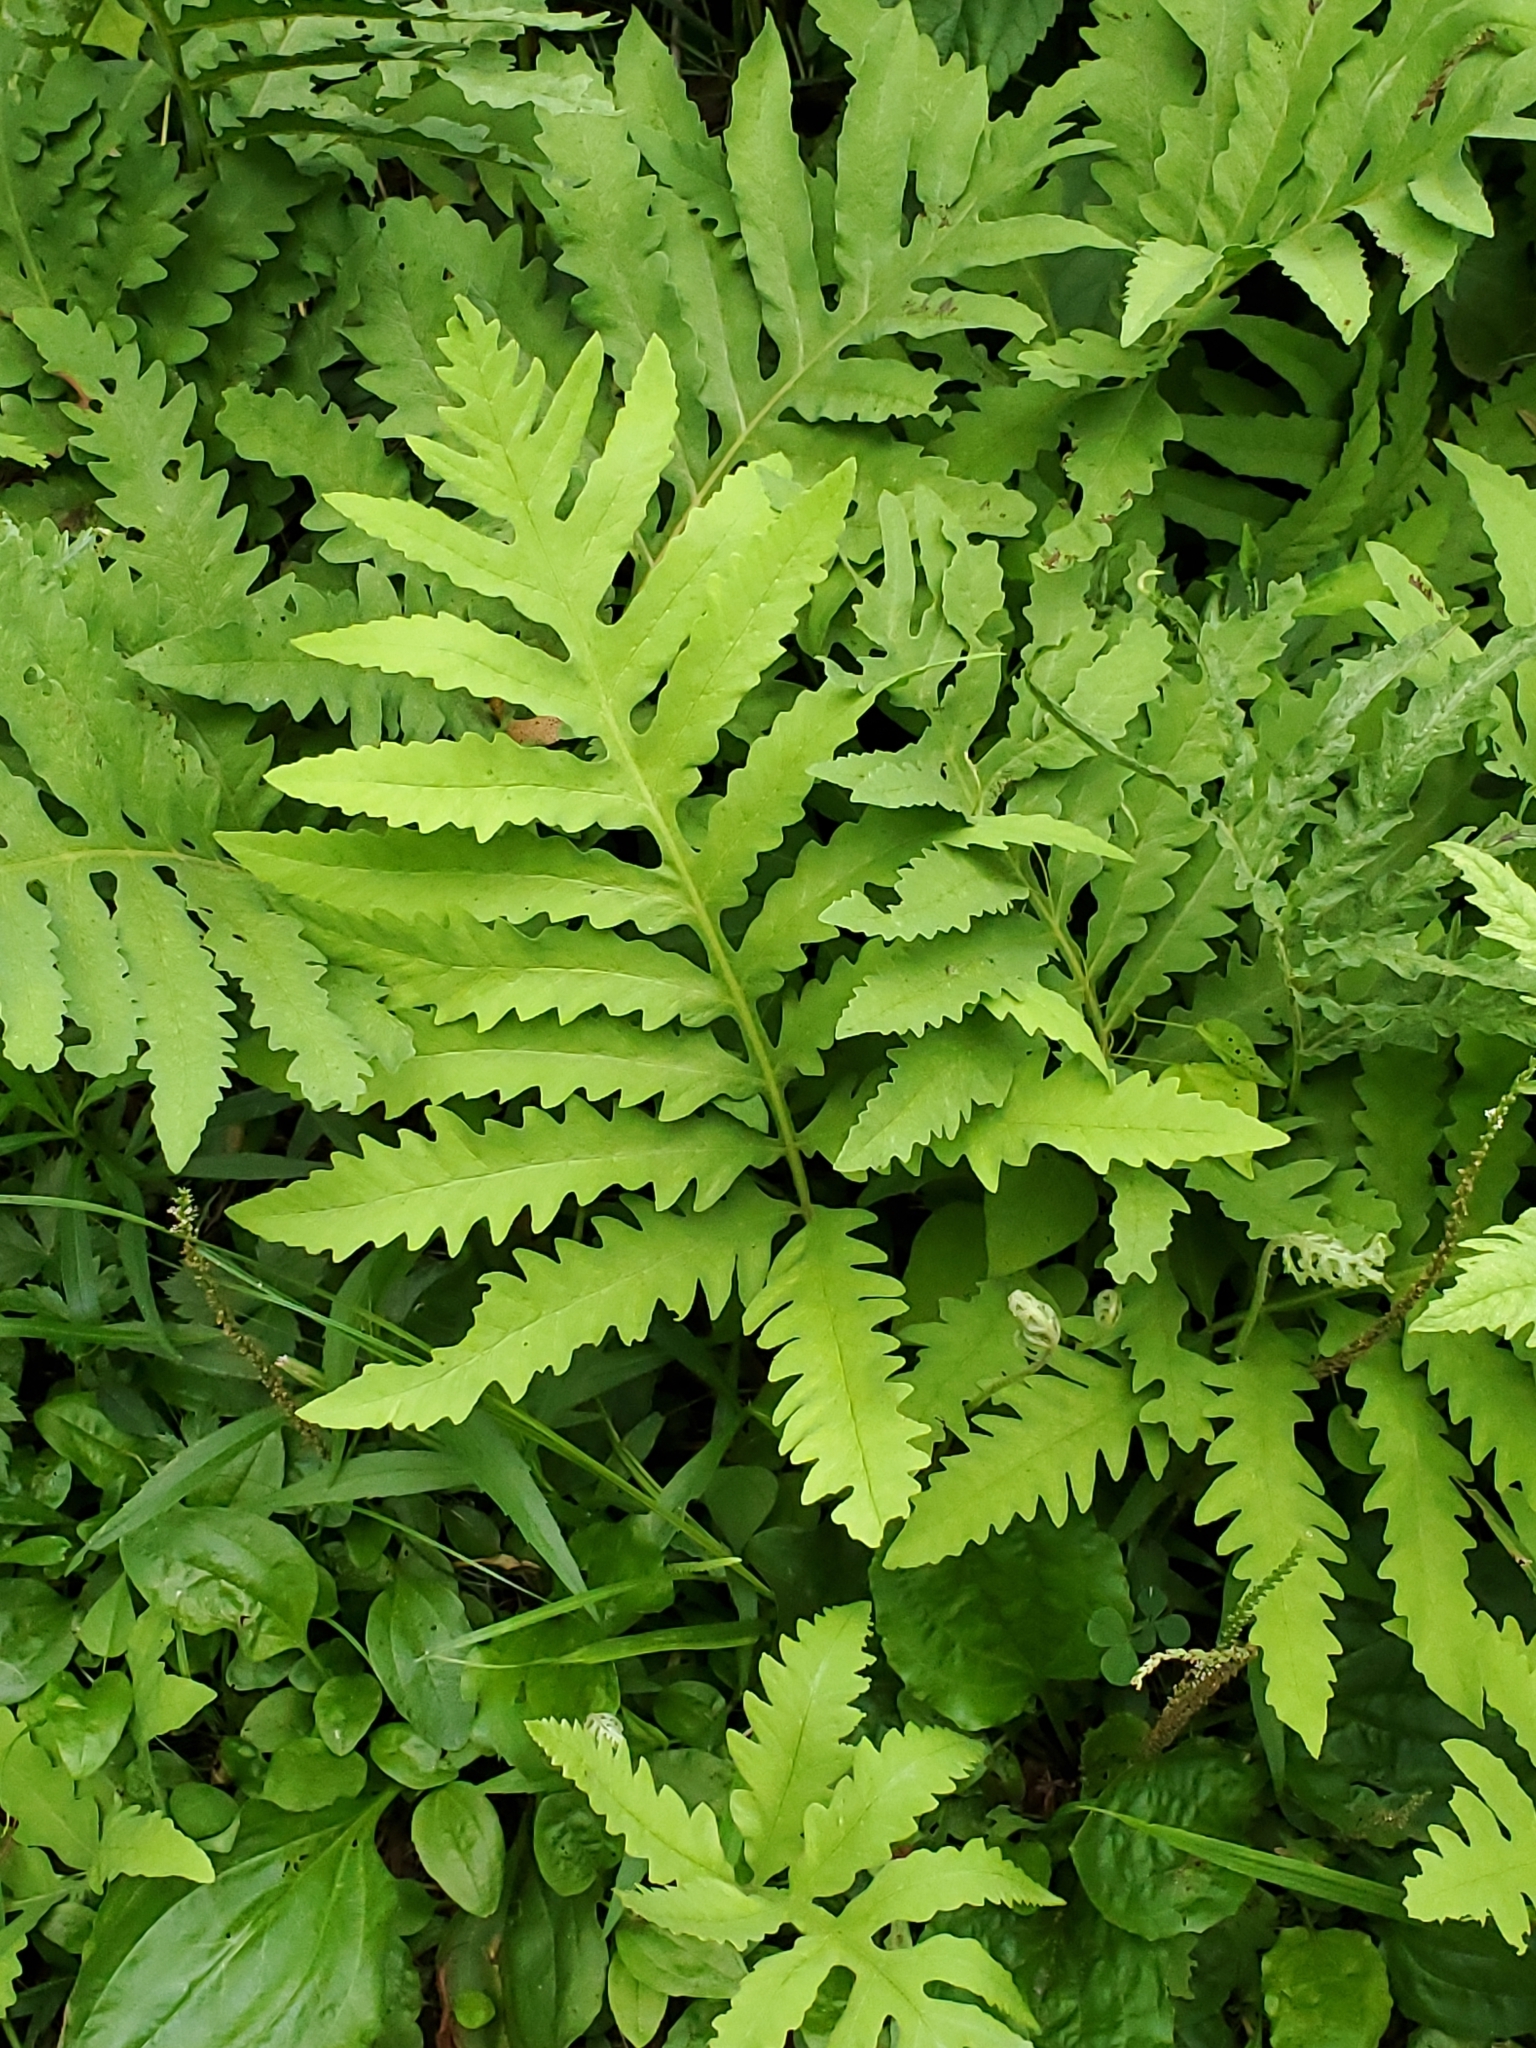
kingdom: Plantae
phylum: Tracheophyta
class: Polypodiopsida
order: Polypodiales
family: Onocleaceae
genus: Onoclea
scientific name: Onoclea sensibilis
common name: Sensitive fern
